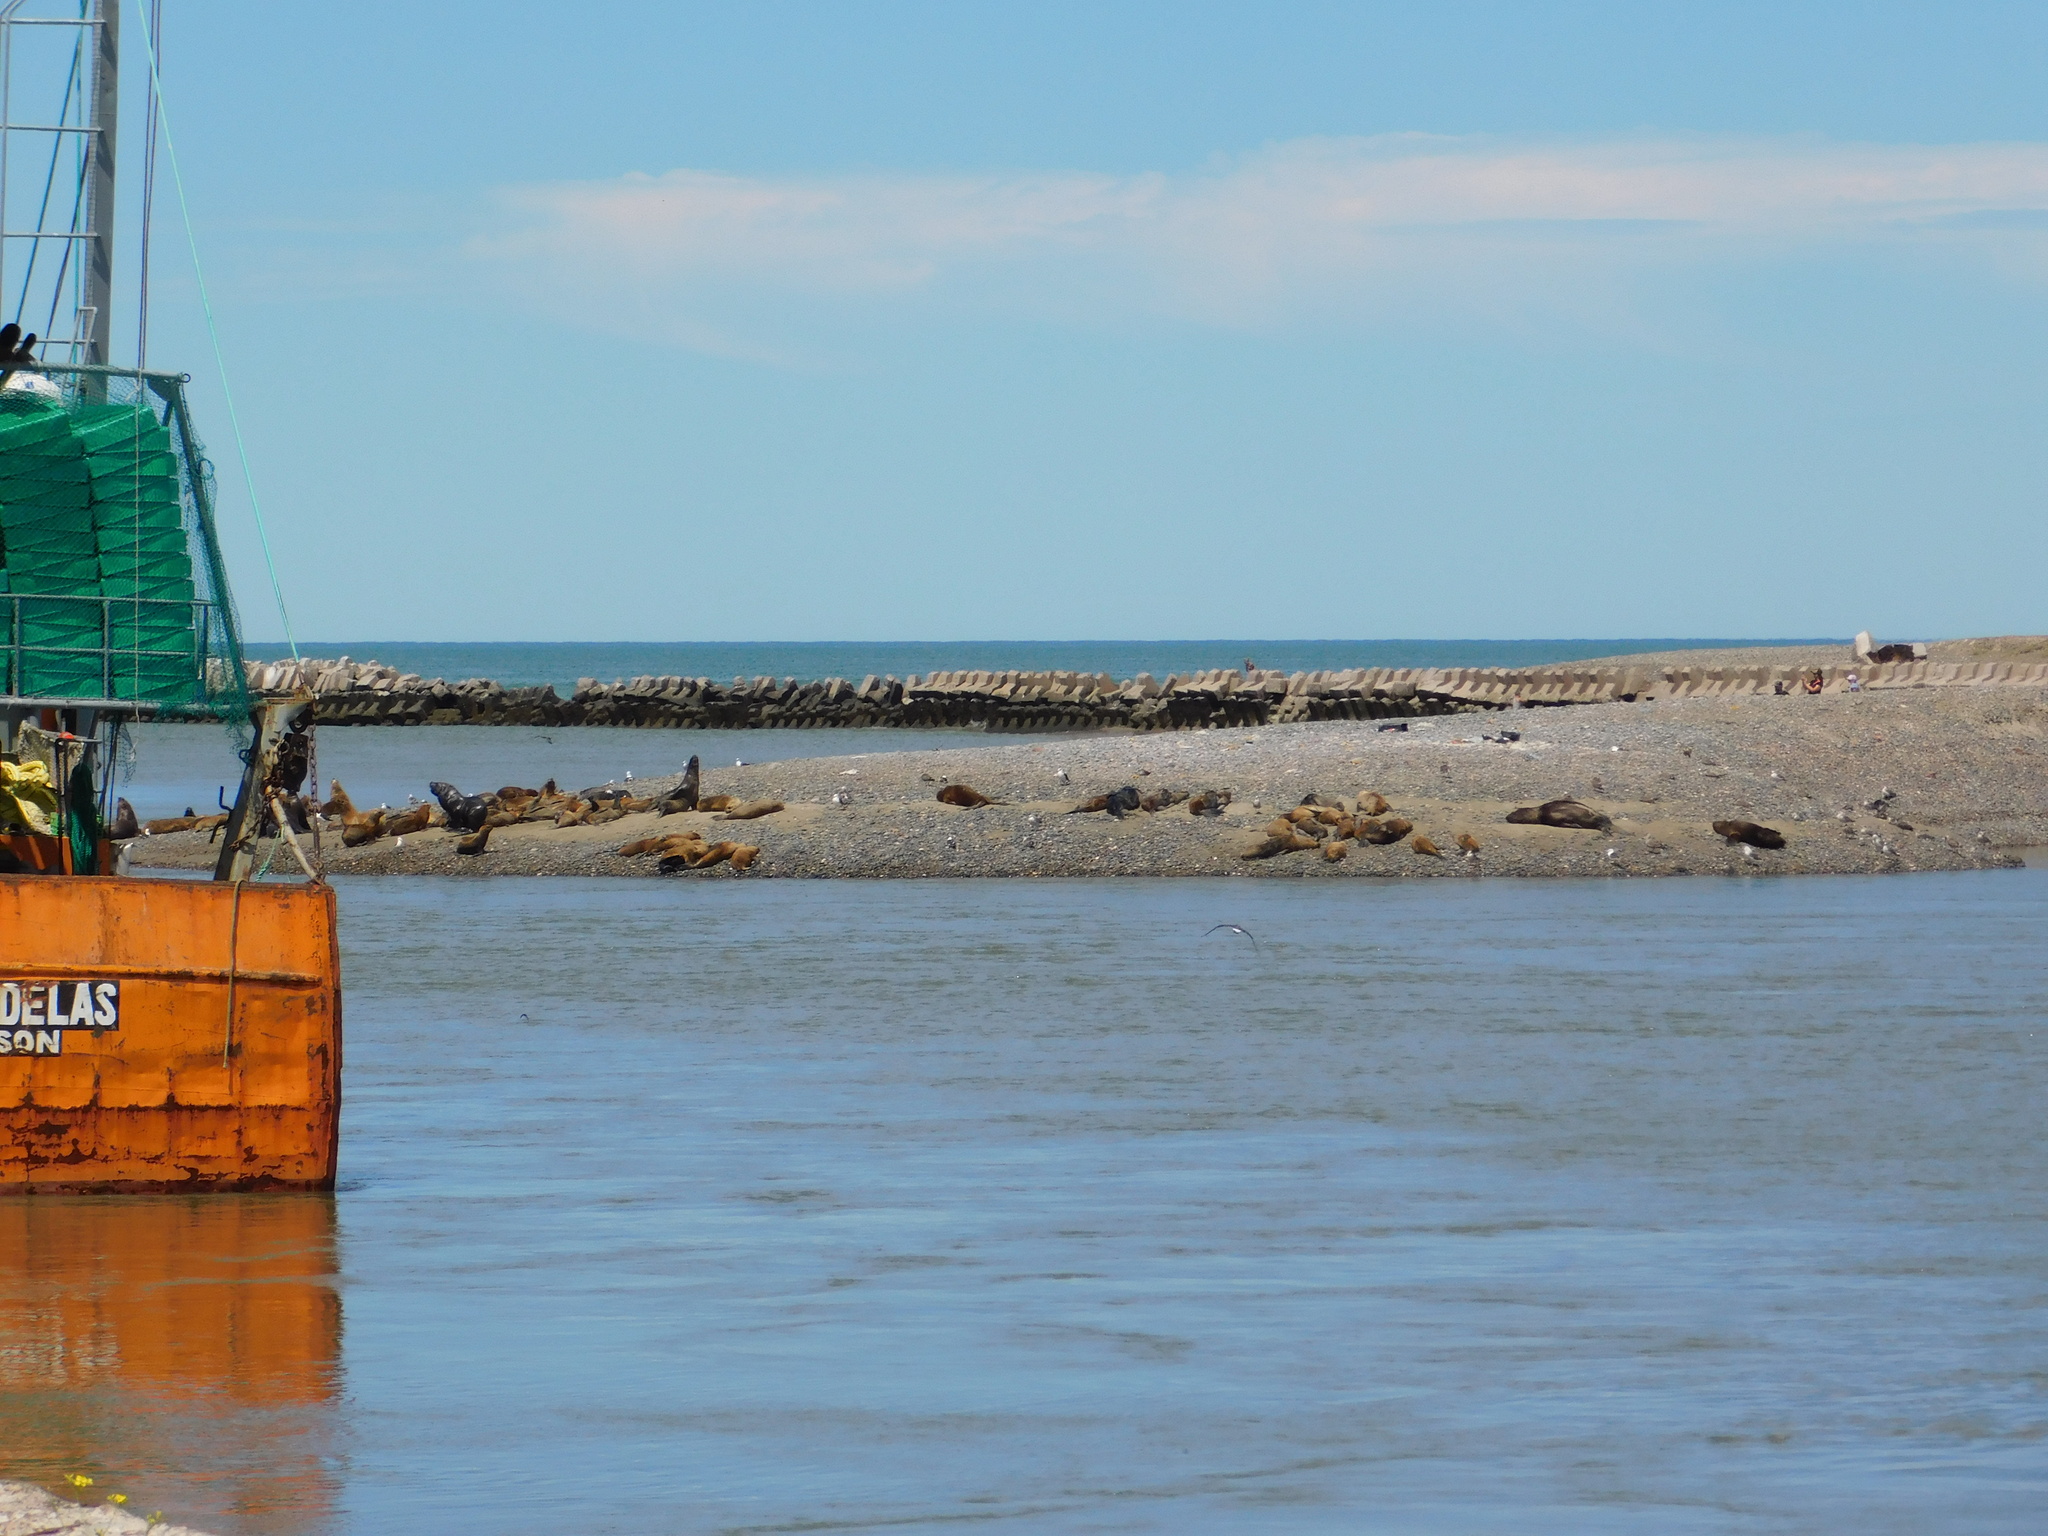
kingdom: Animalia
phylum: Chordata
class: Mammalia
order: Carnivora
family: Otariidae
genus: Otaria
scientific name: Otaria byronia
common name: South american sea lion
